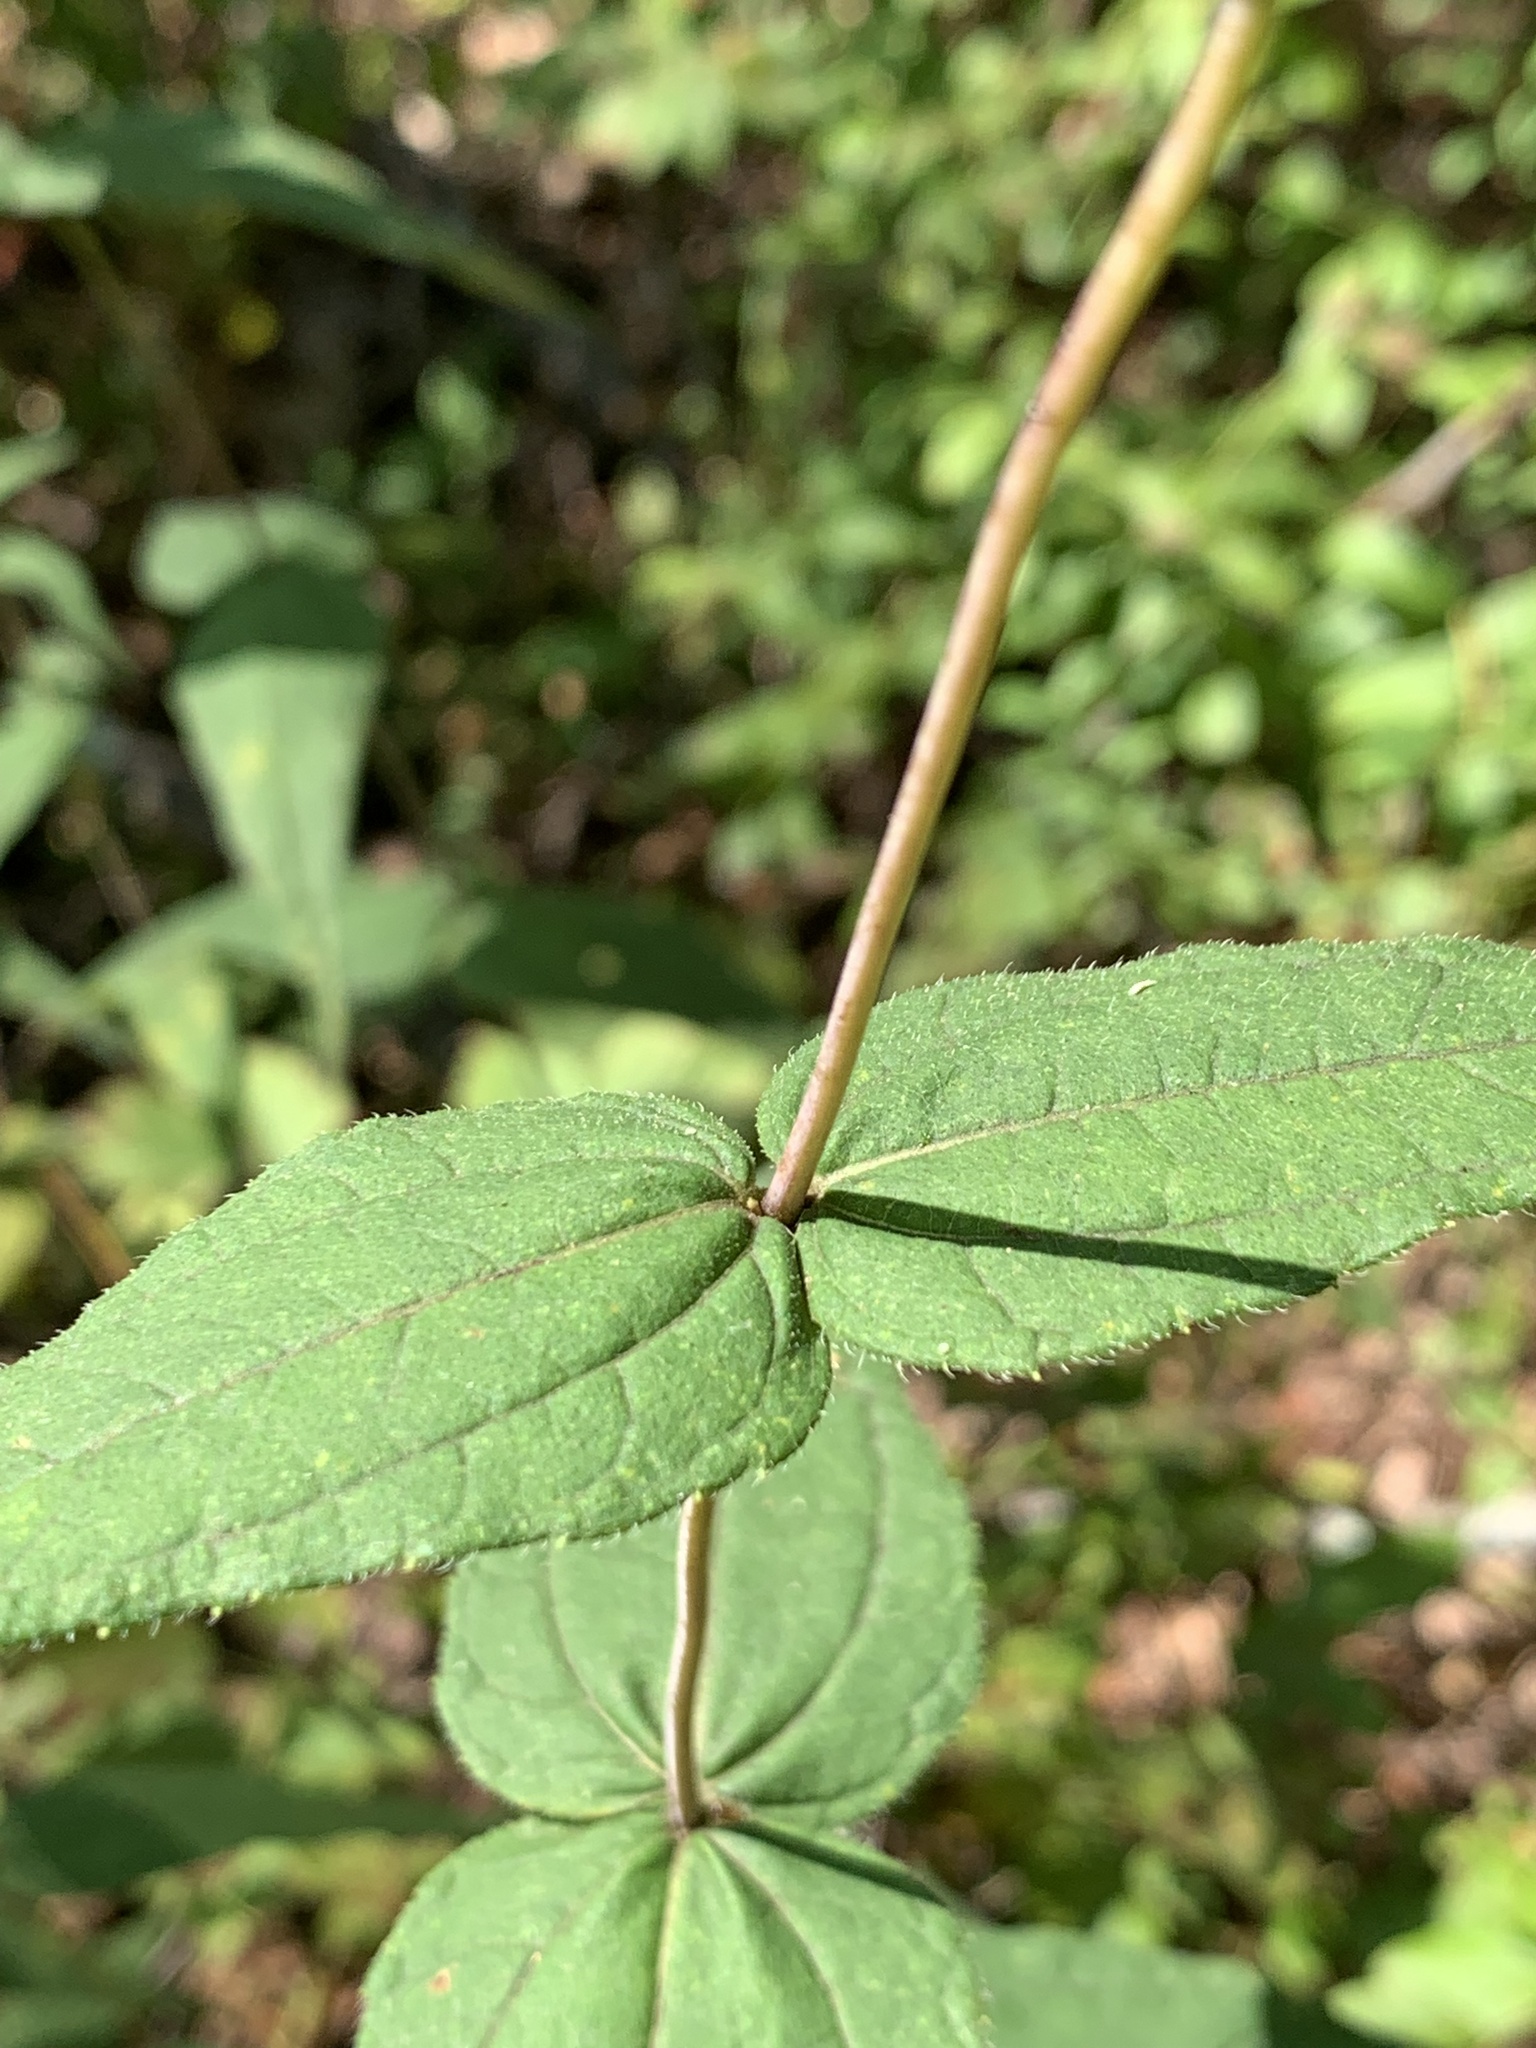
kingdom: Plantae
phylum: Tracheophyta
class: Magnoliopsida
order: Asterales
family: Asteraceae
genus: Helianthus
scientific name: Helianthus divaricatus
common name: Divergent sunflower
